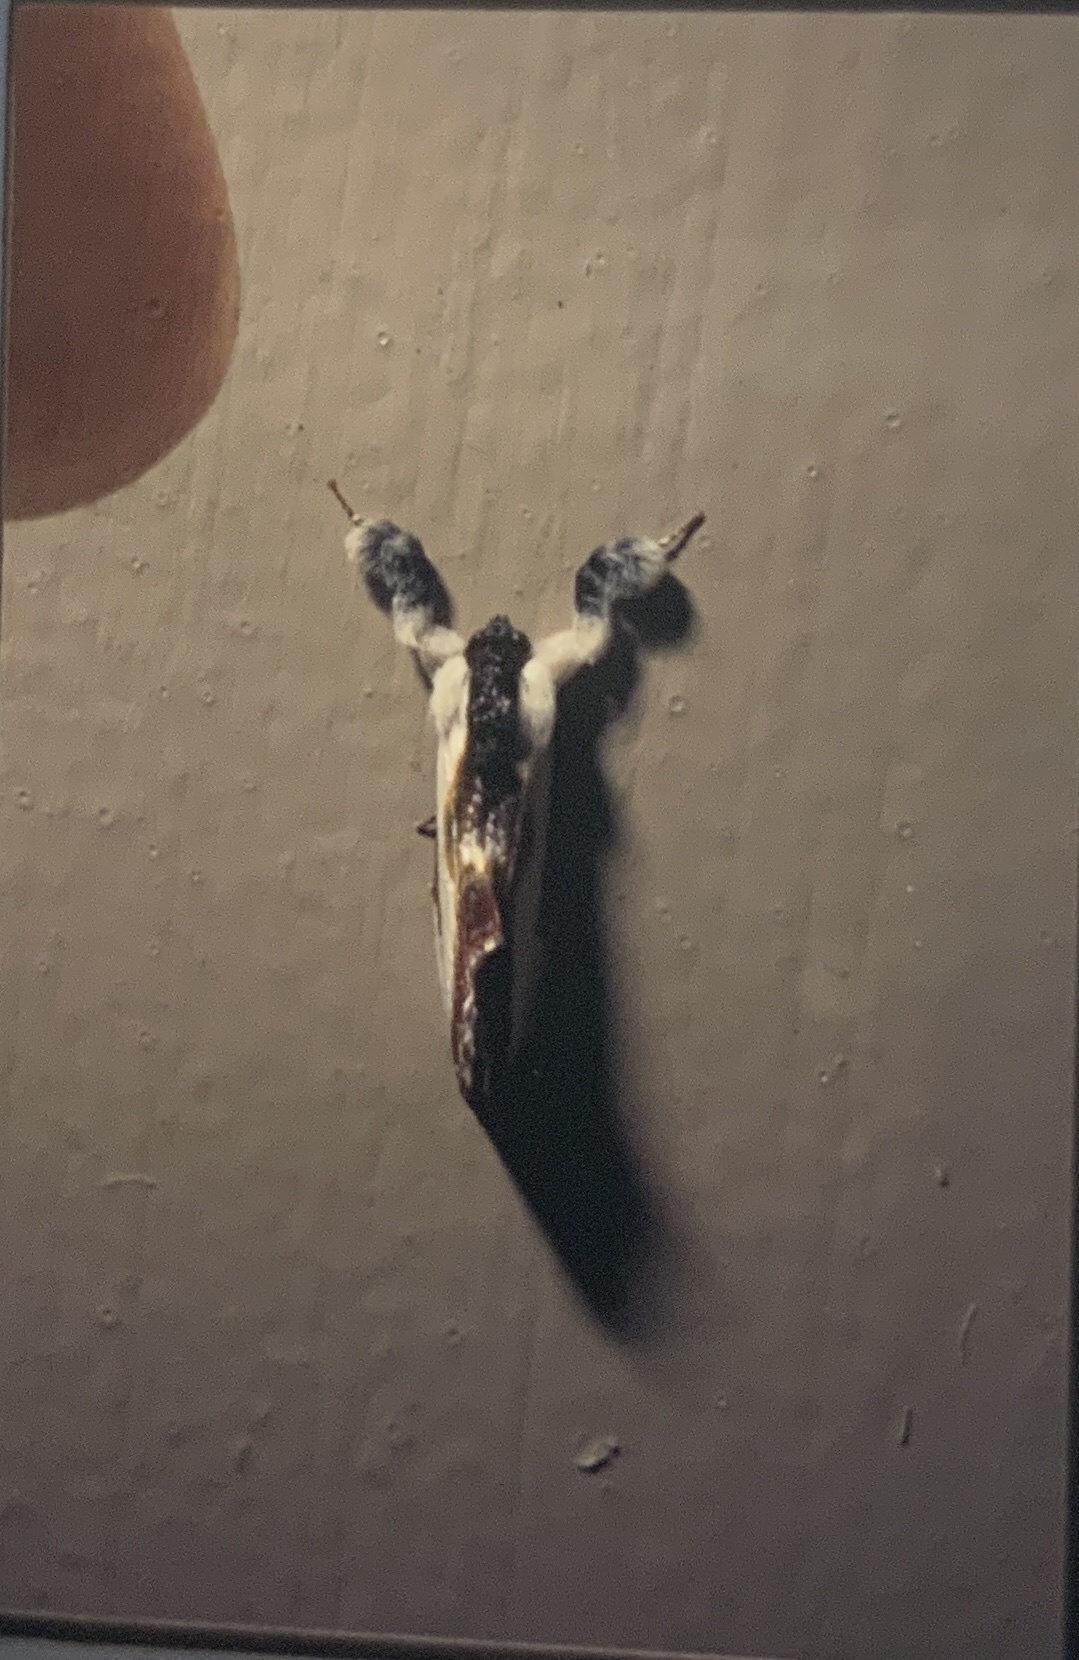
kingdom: Animalia
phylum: Arthropoda
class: Insecta
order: Lepidoptera
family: Noctuidae
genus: Eudryas
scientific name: Eudryas grata
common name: Beautiful wood-nymph
